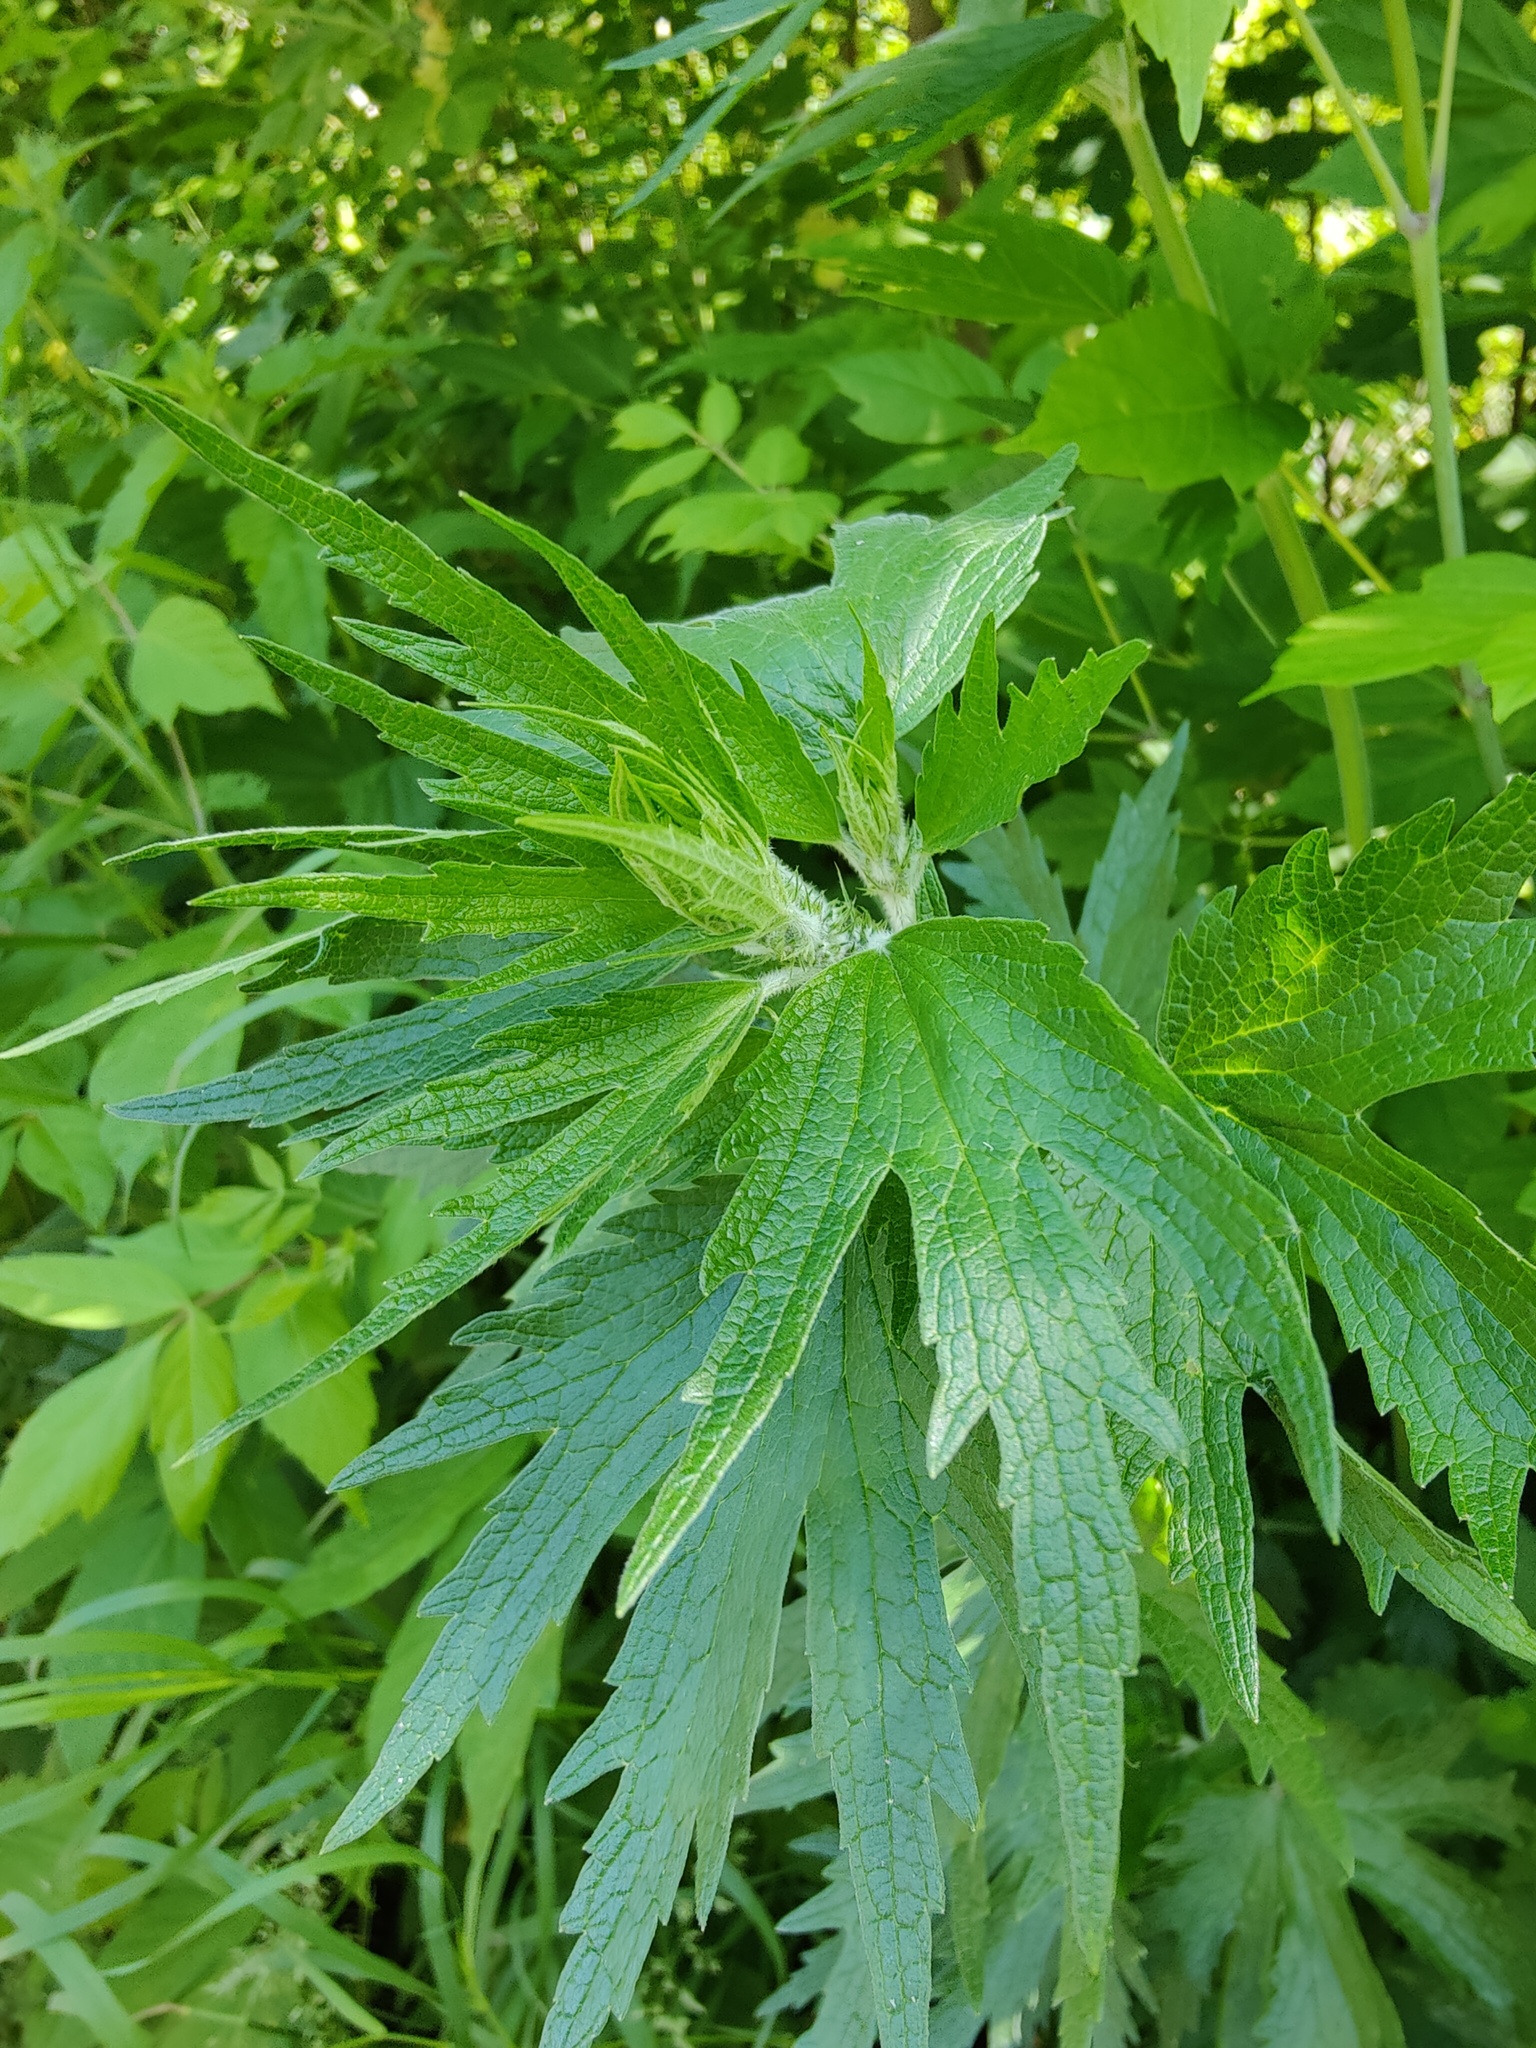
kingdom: Plantae
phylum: Tracheophyta
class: Magnoliopsida
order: Lamiales
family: Lamiaceae
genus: Leonurus
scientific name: Leonurus quinquelobatus
